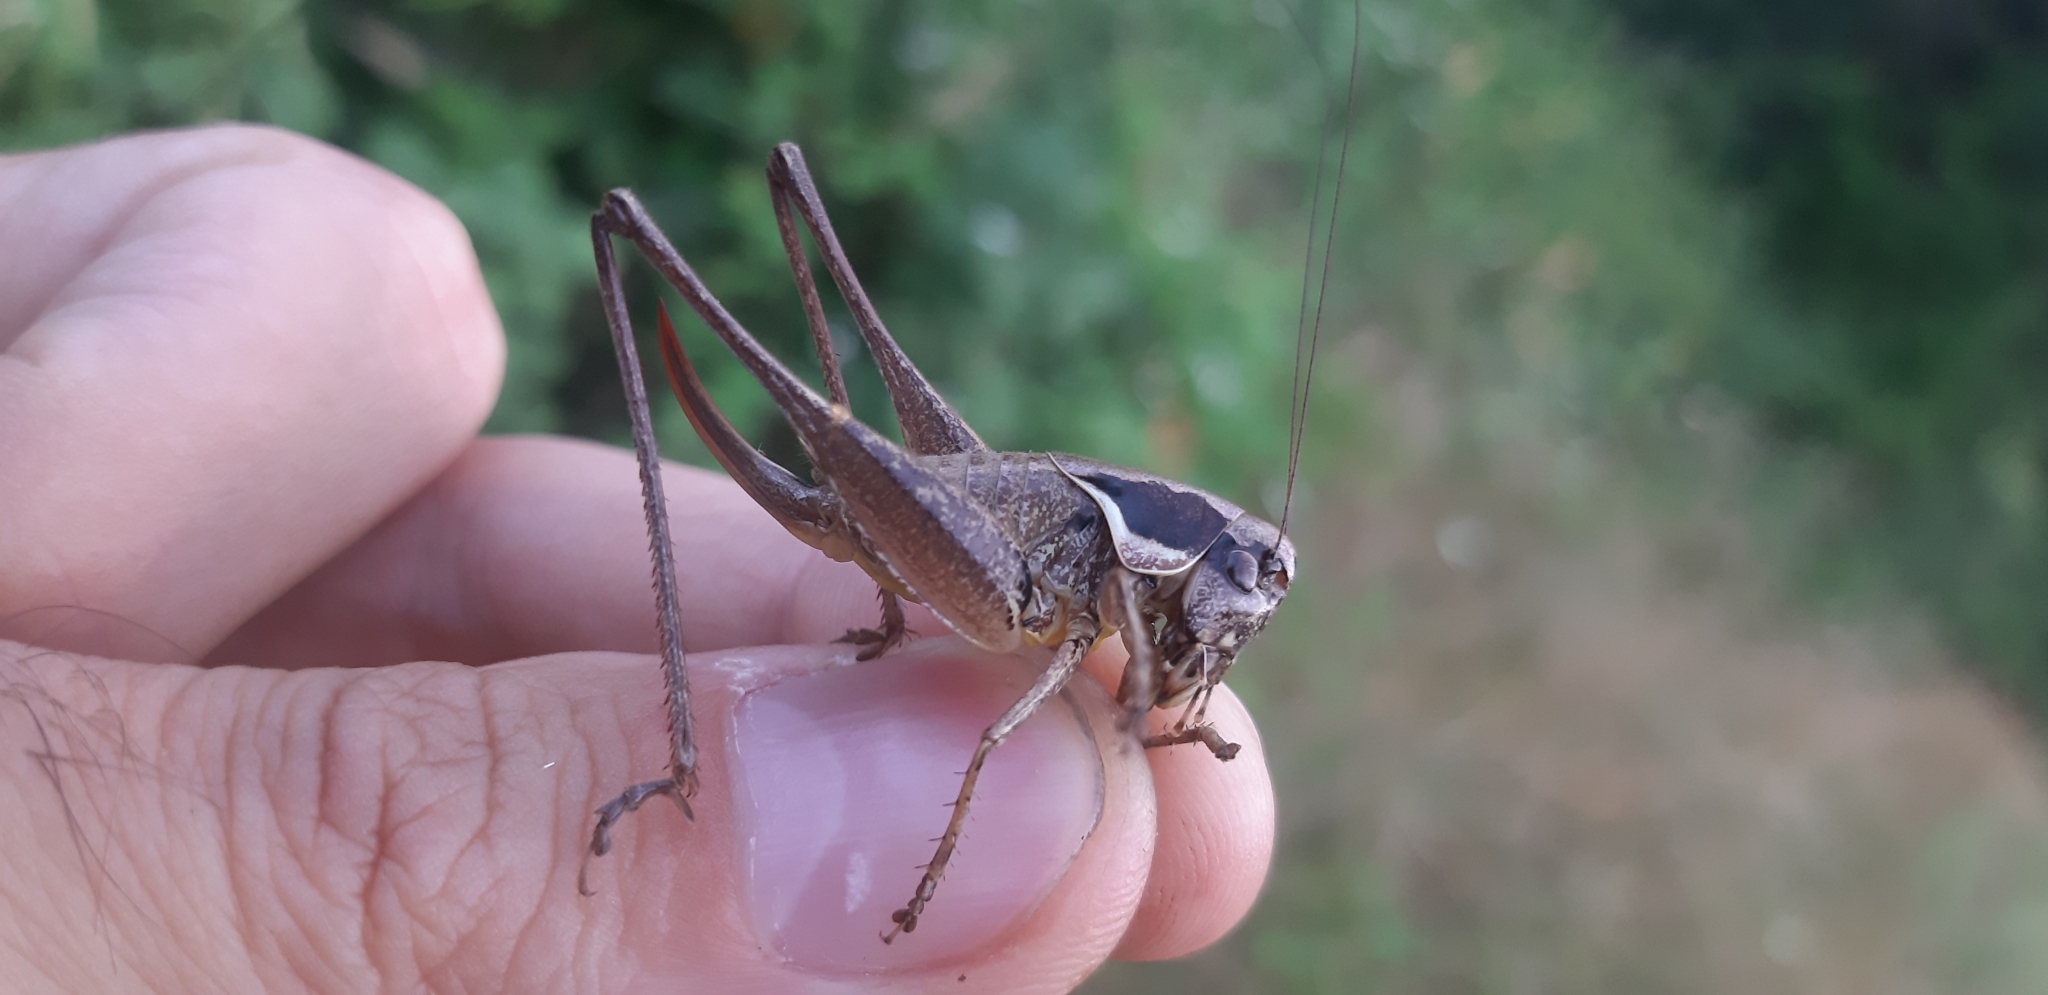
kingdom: Animalia
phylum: Arthropoda
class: Insecta
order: Orthoptera
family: Tettigoniidae
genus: Pholidoptera
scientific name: Pholidoptera femorata
